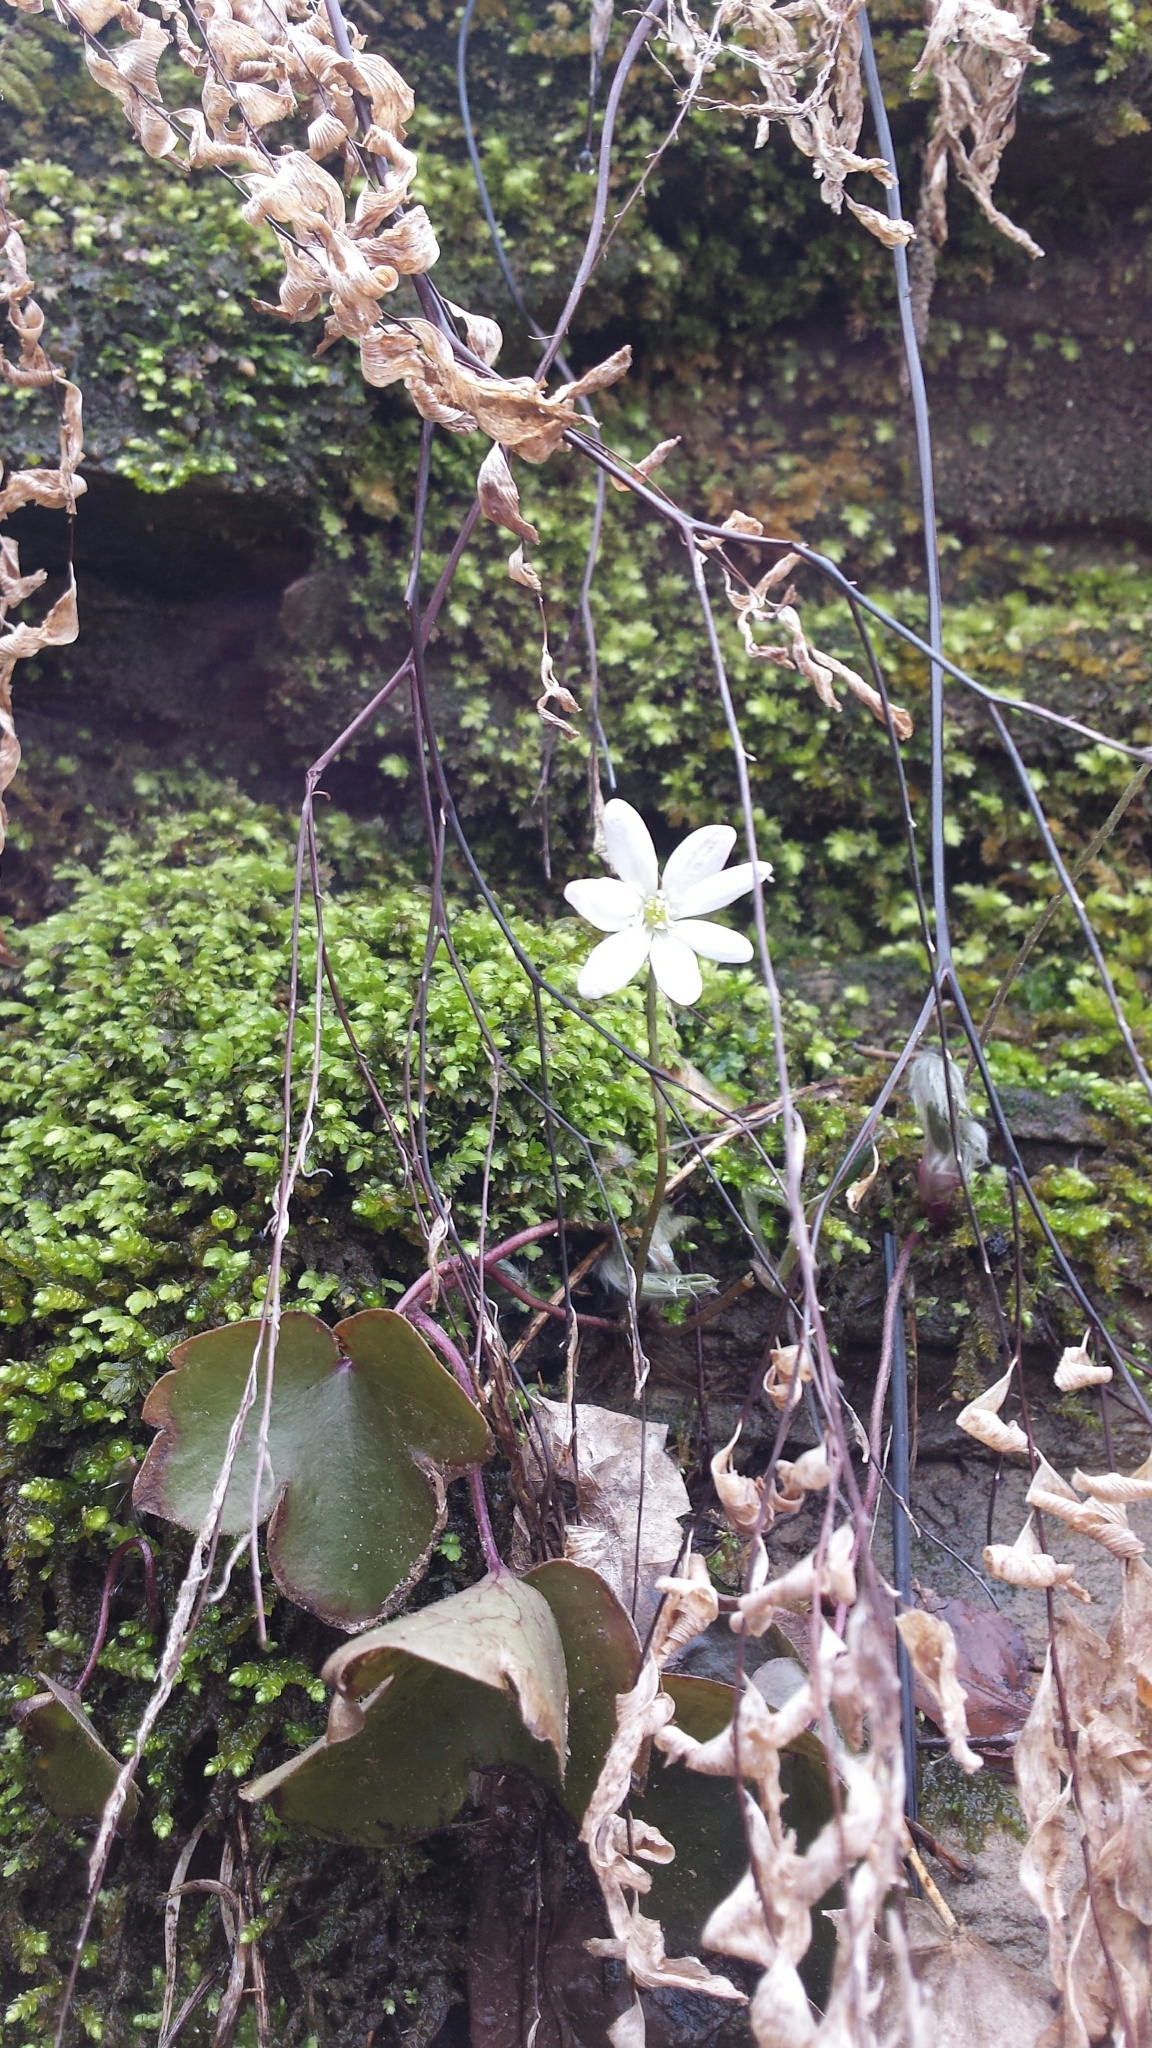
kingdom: Plantae
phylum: Tracheophyta
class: Magnoliopsida
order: Ranunculales
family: Ranunculaceae
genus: Hepatica
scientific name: Hepatica acutiloba
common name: Sharp-lobed hepatica
